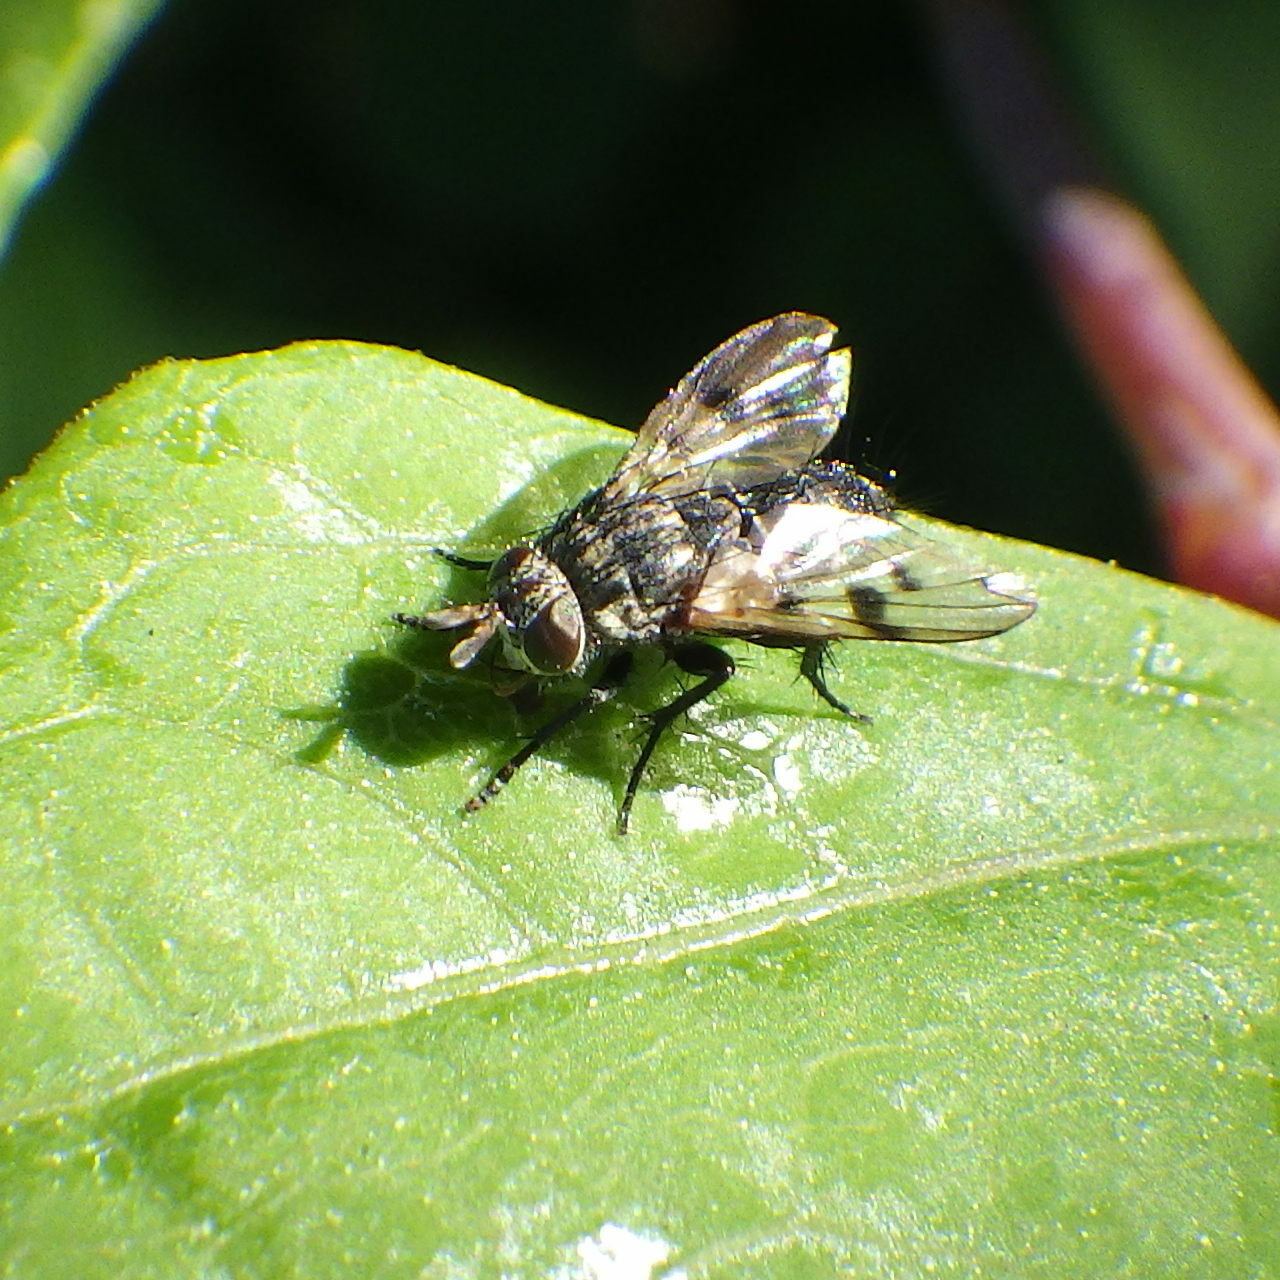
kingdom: Animalia
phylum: Arthropoda
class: Insecta
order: Diptera
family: Tachinidae
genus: Lypha
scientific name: Lypha harringtoni
